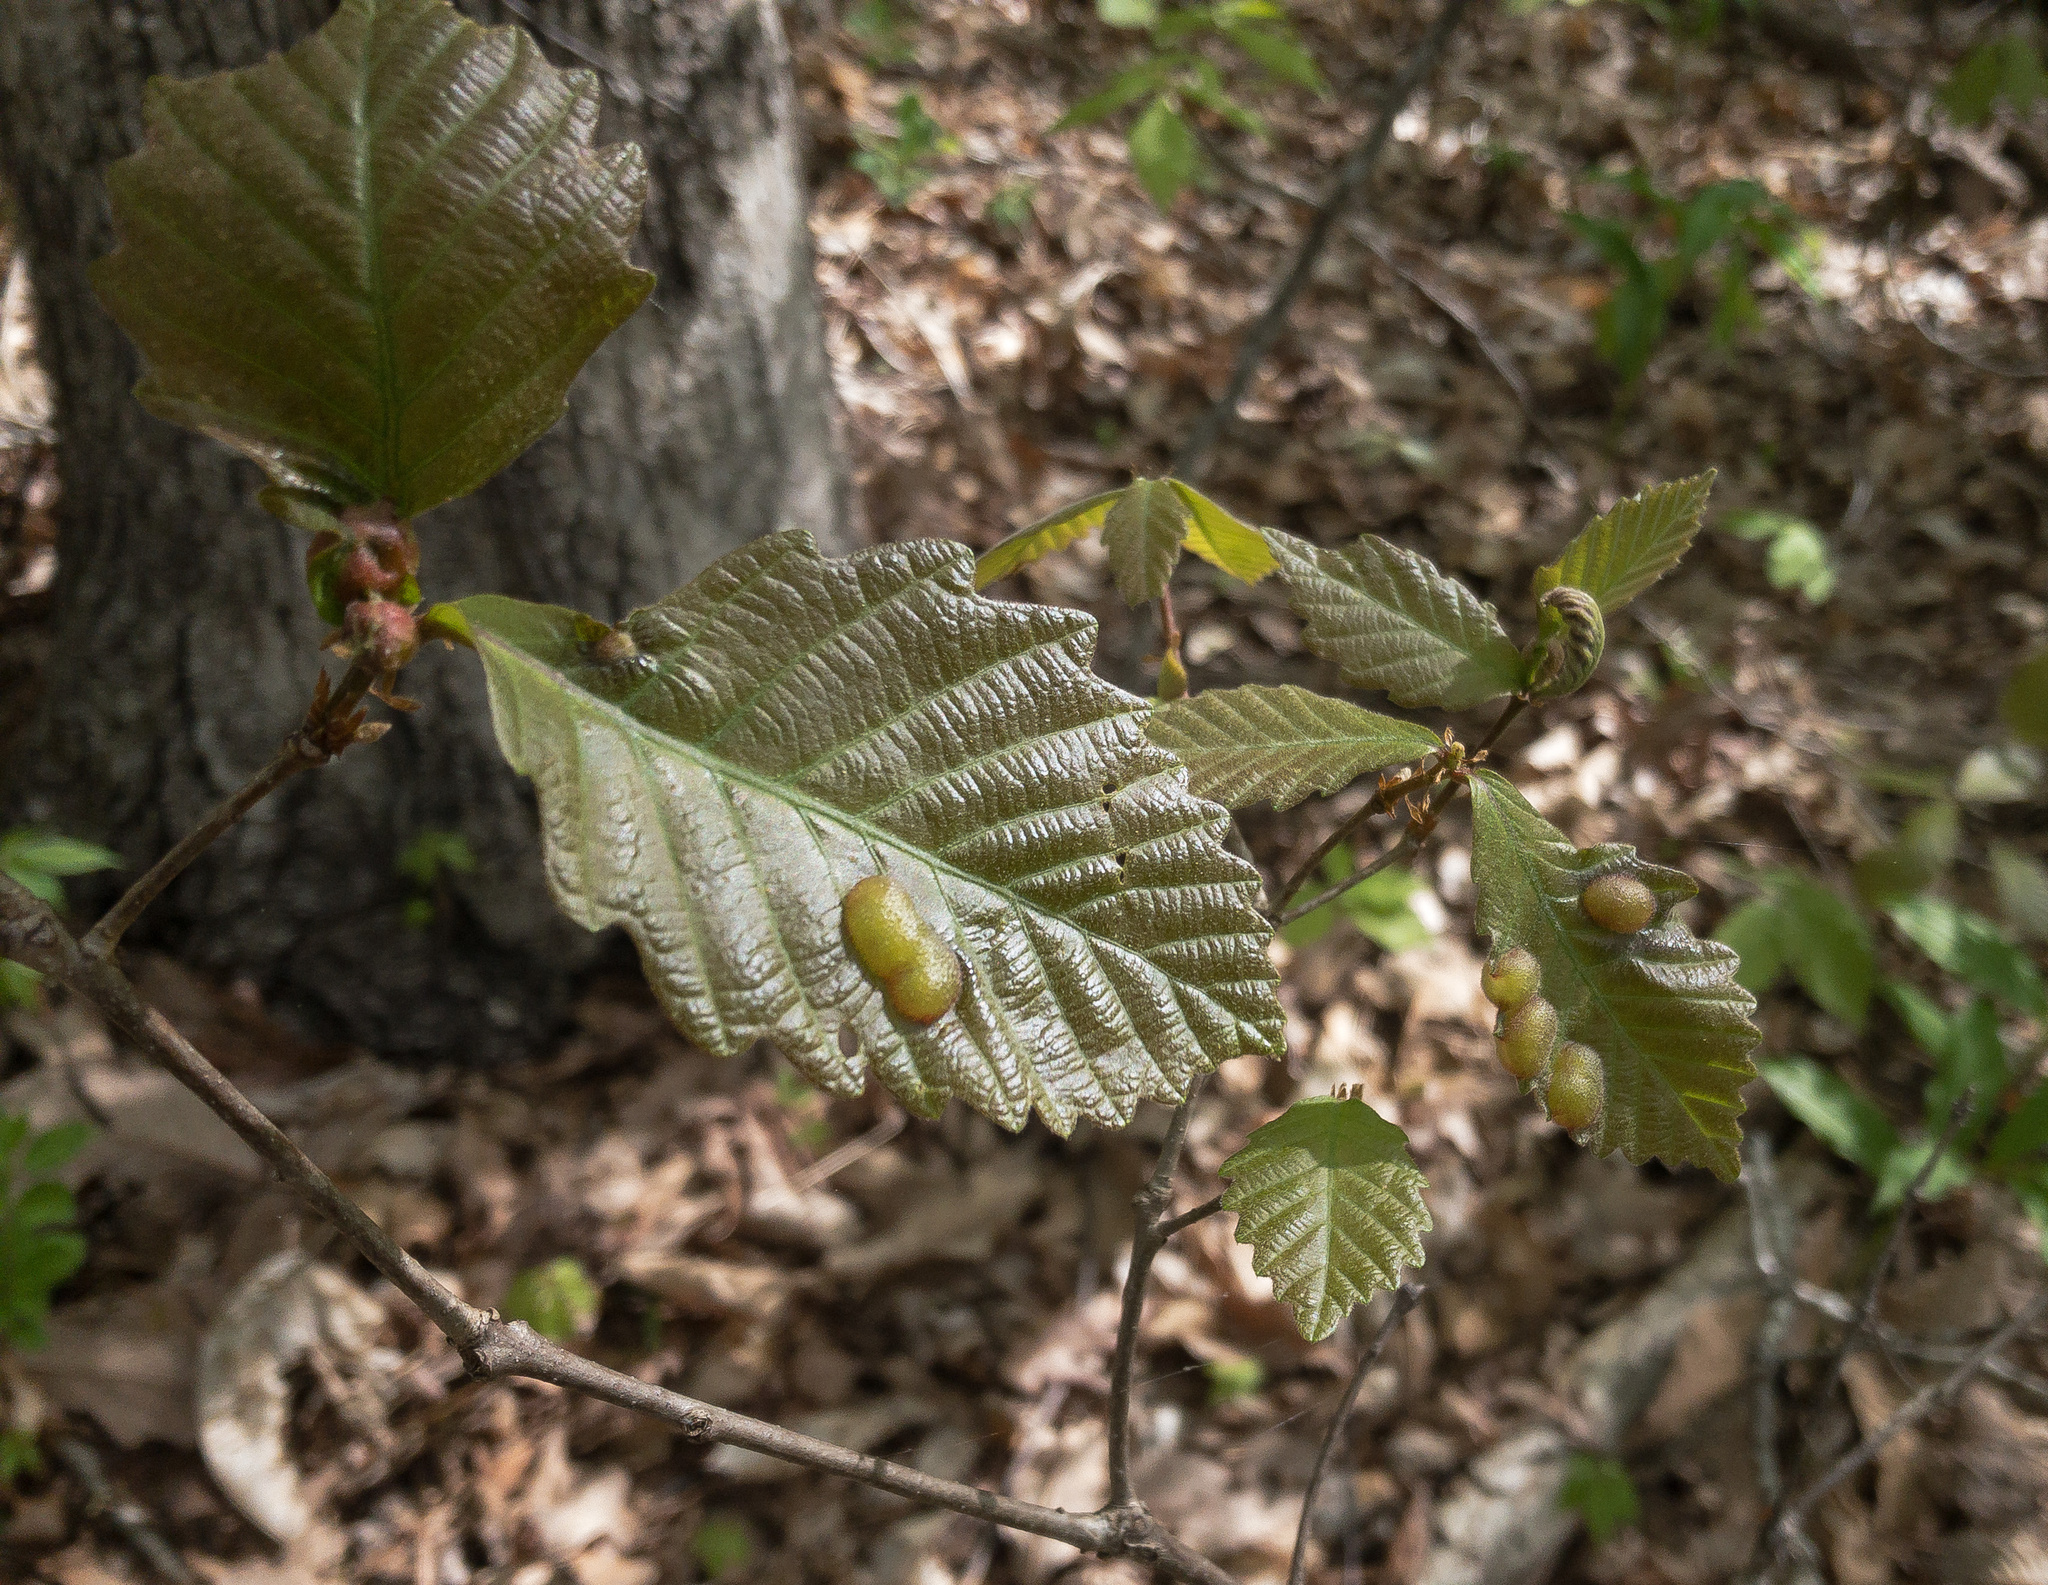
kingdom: Animalia
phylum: Arthropoda
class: Insecta
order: Hymenoptera
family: Cynipidae
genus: Neuroterus
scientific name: Neuroterus quercusirregularis
